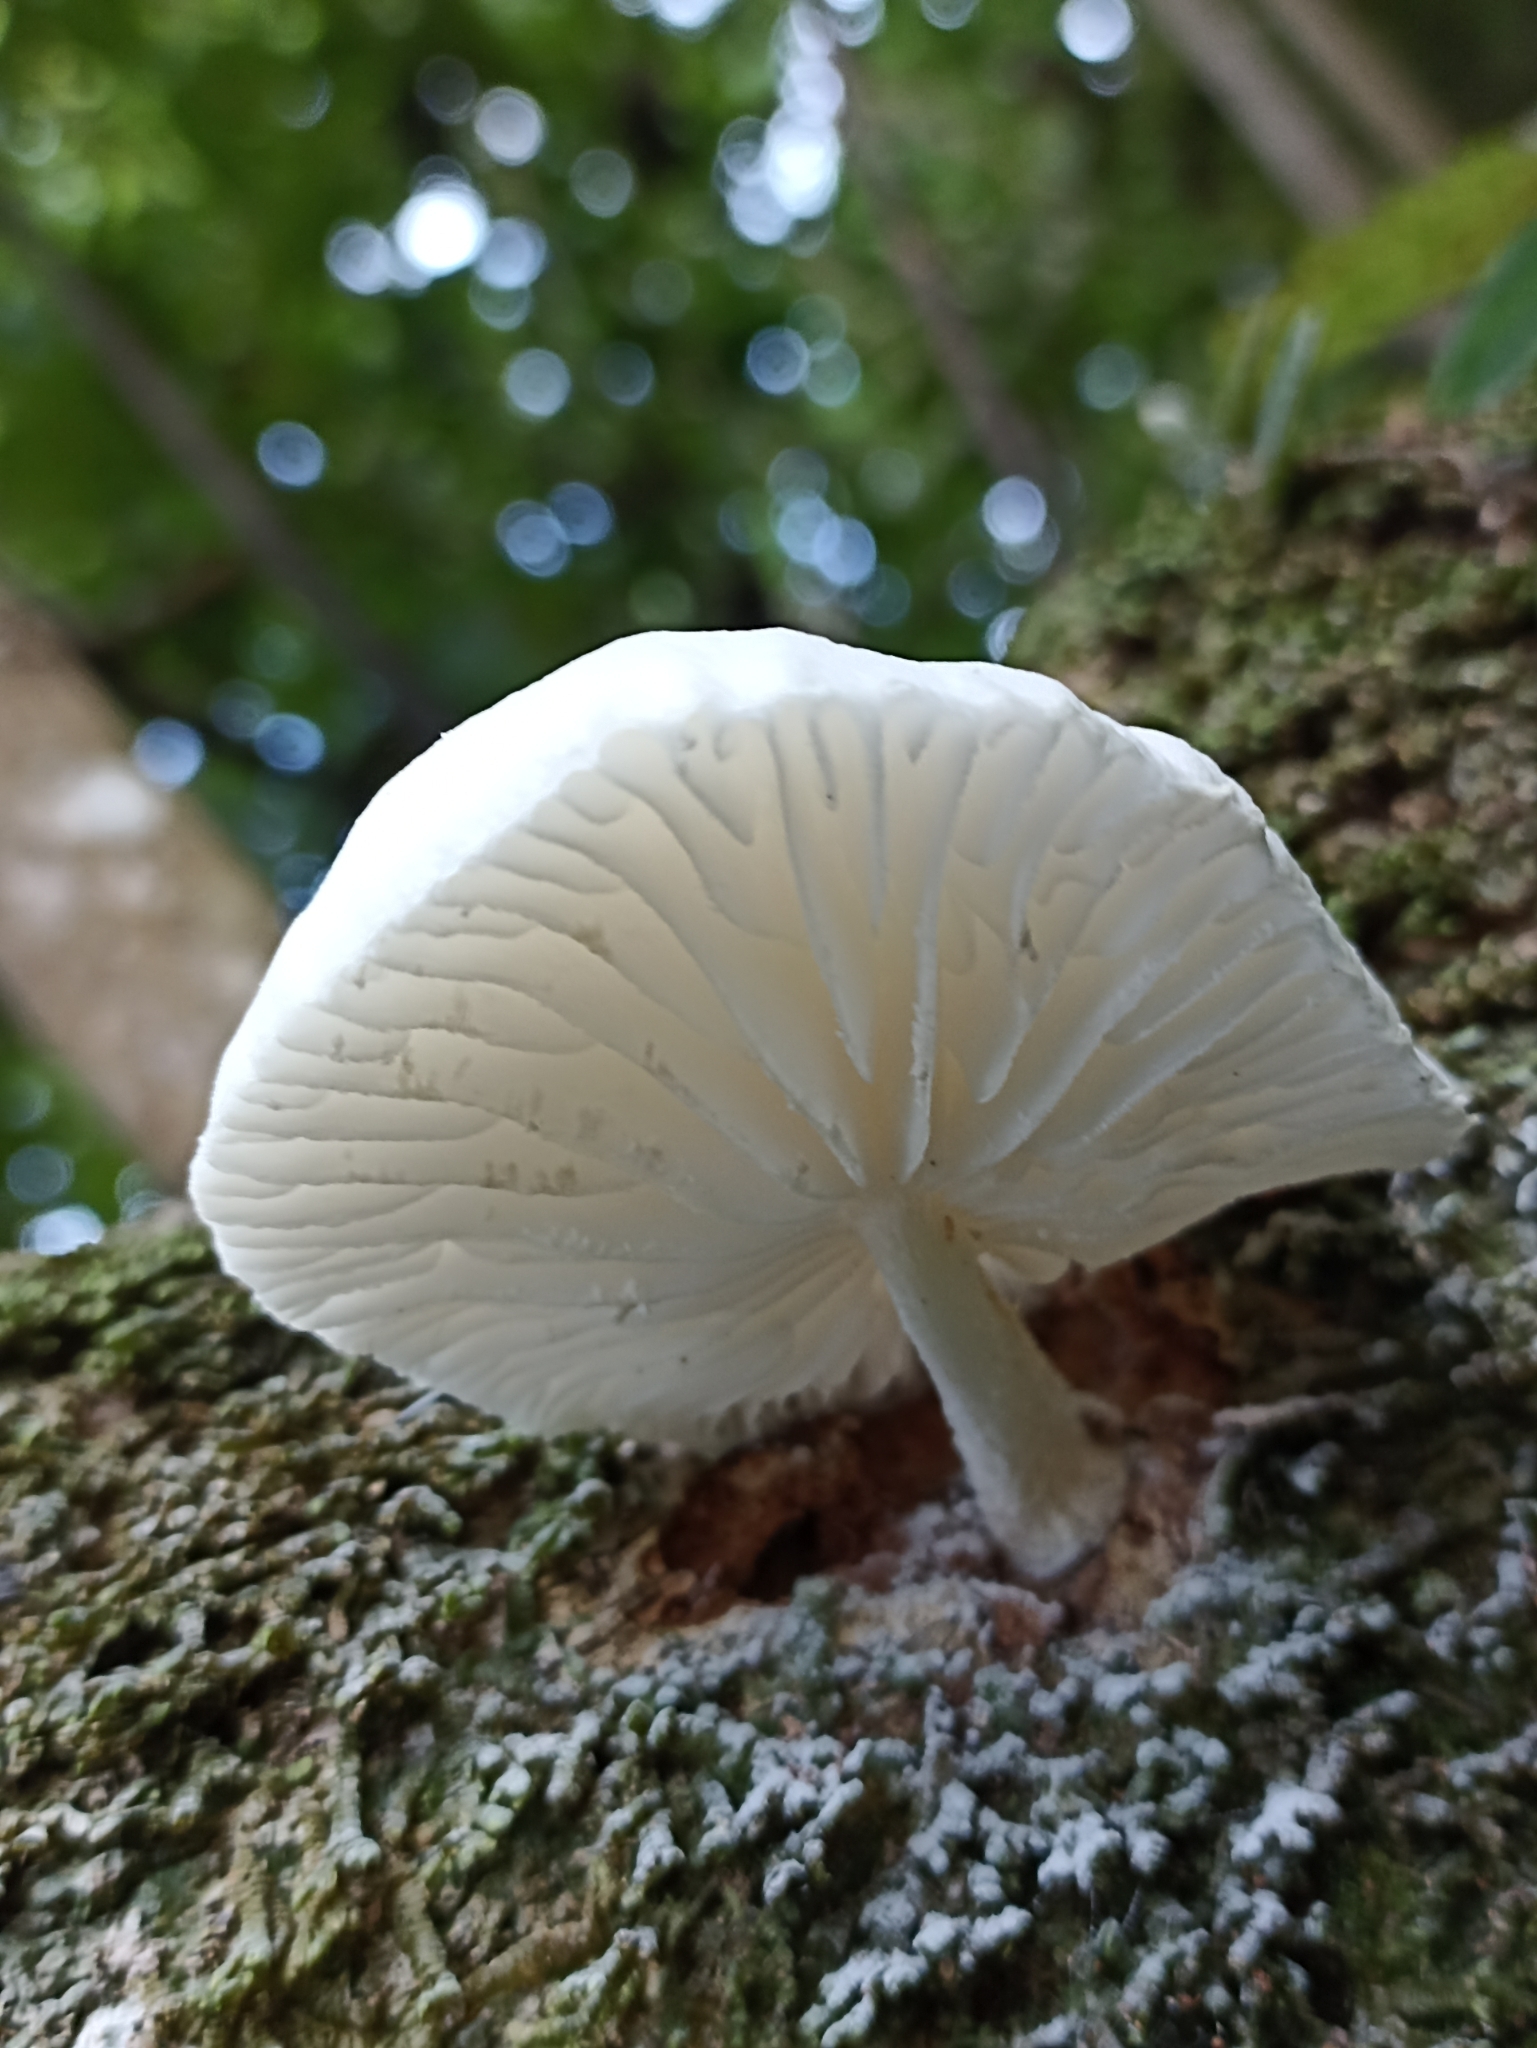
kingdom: Fungi
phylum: Basidiomycota
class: Agaricomycetes
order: Agaricales
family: Physalacriaceae
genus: Oudemansiella
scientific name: Oudemansiella australis
